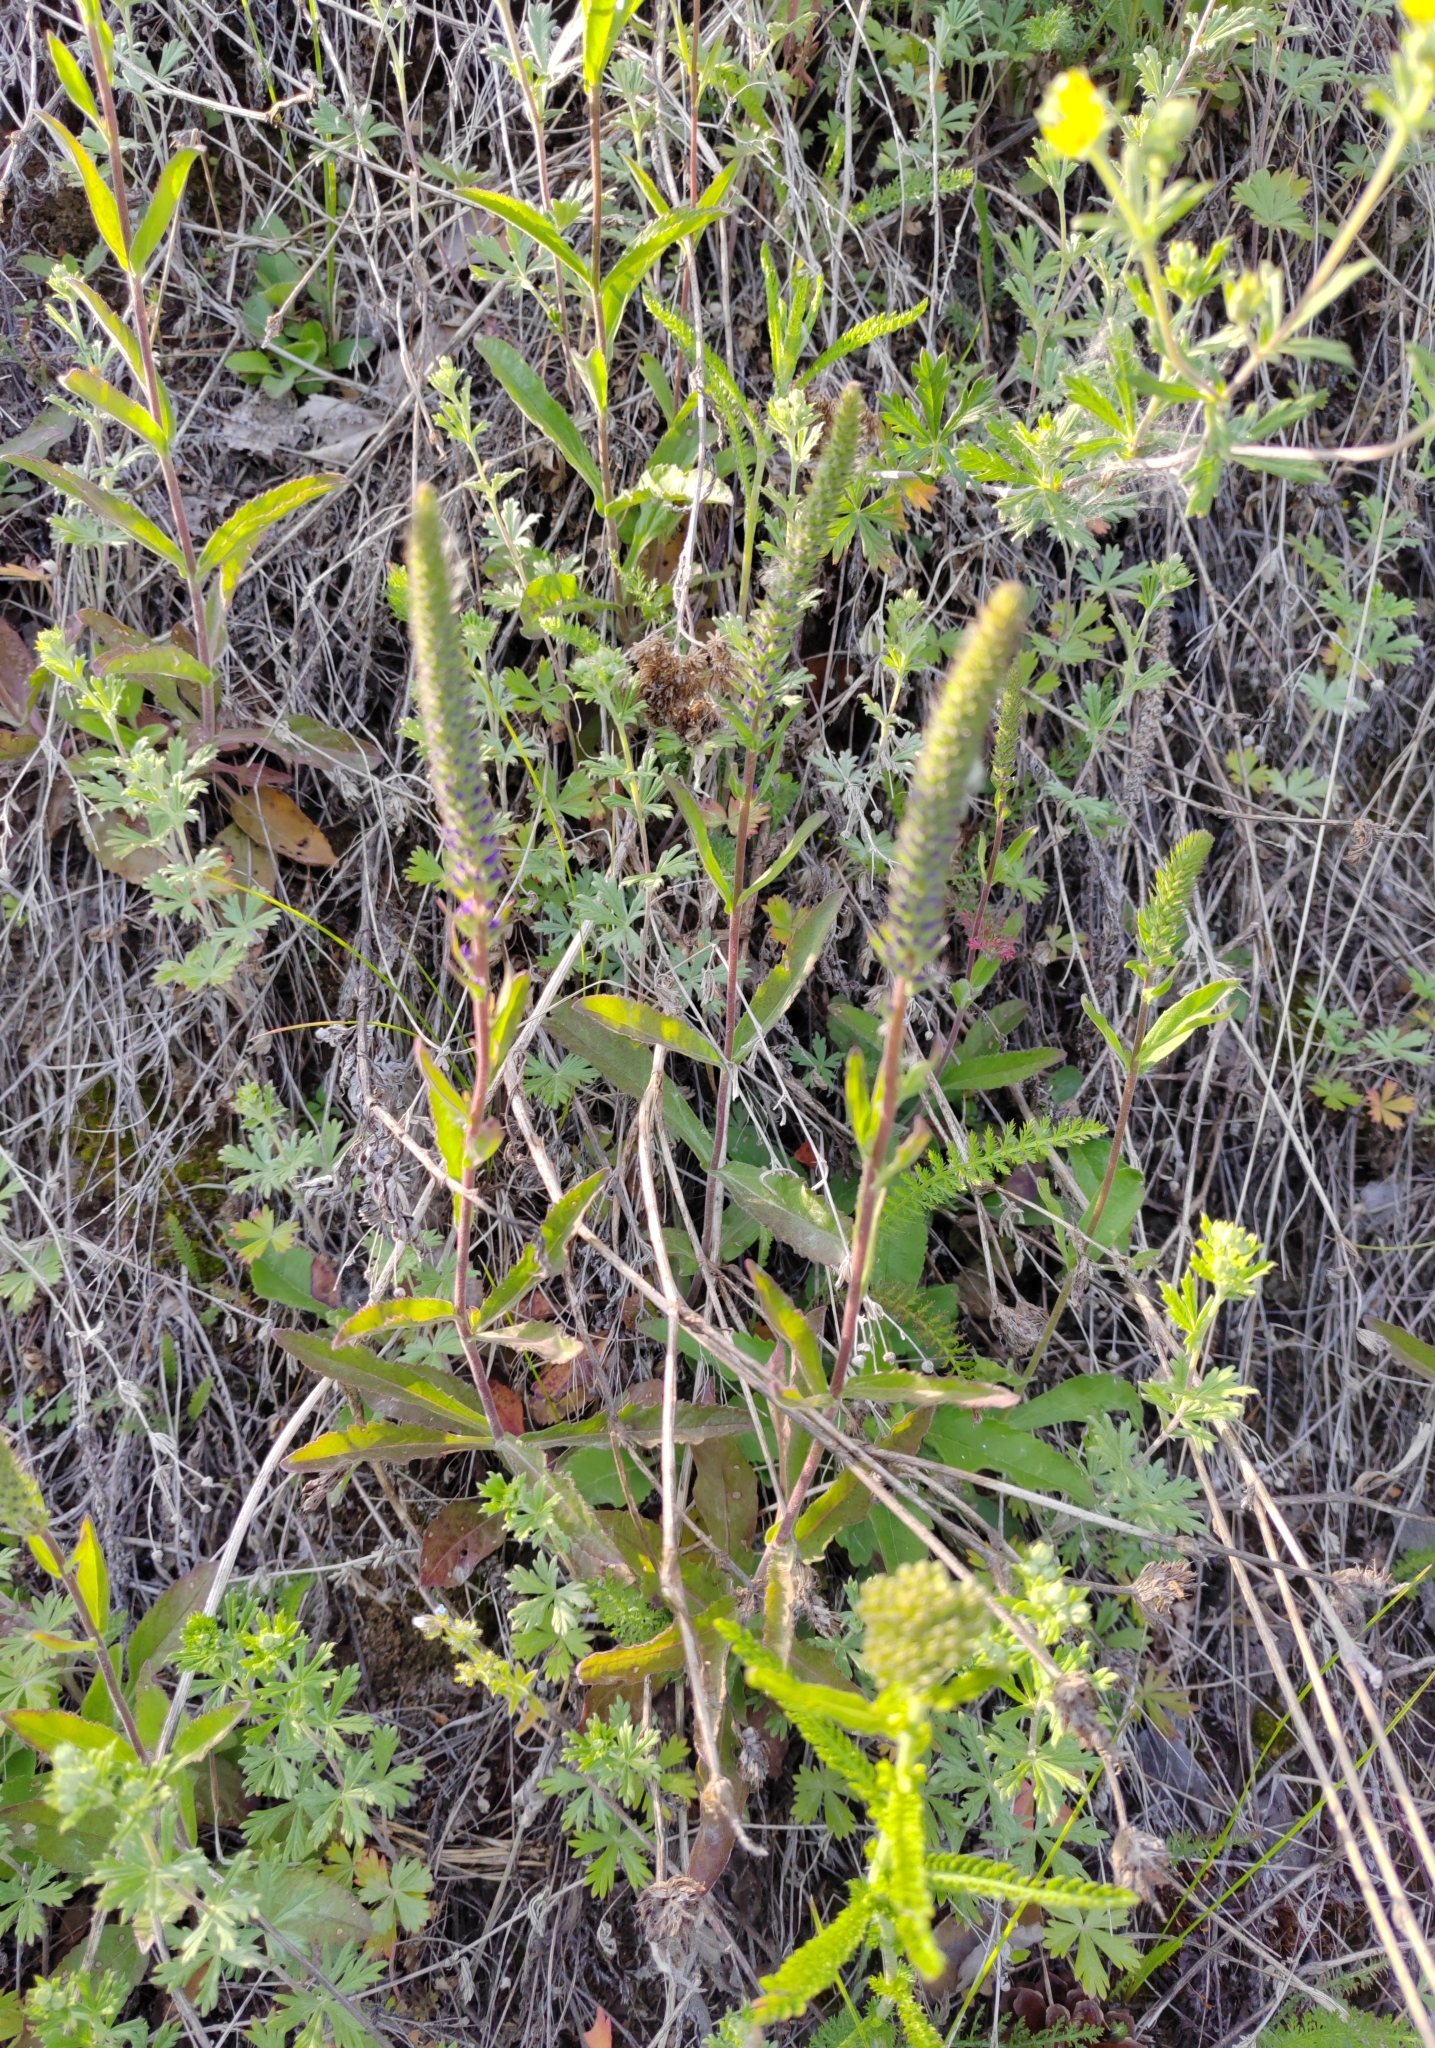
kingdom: Plantae
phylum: Tracheophyta
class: Magnoliopsida
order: Lamiales
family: Plantaginaceae
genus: Veronica
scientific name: Veronica spicata
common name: Spiked speedwell
